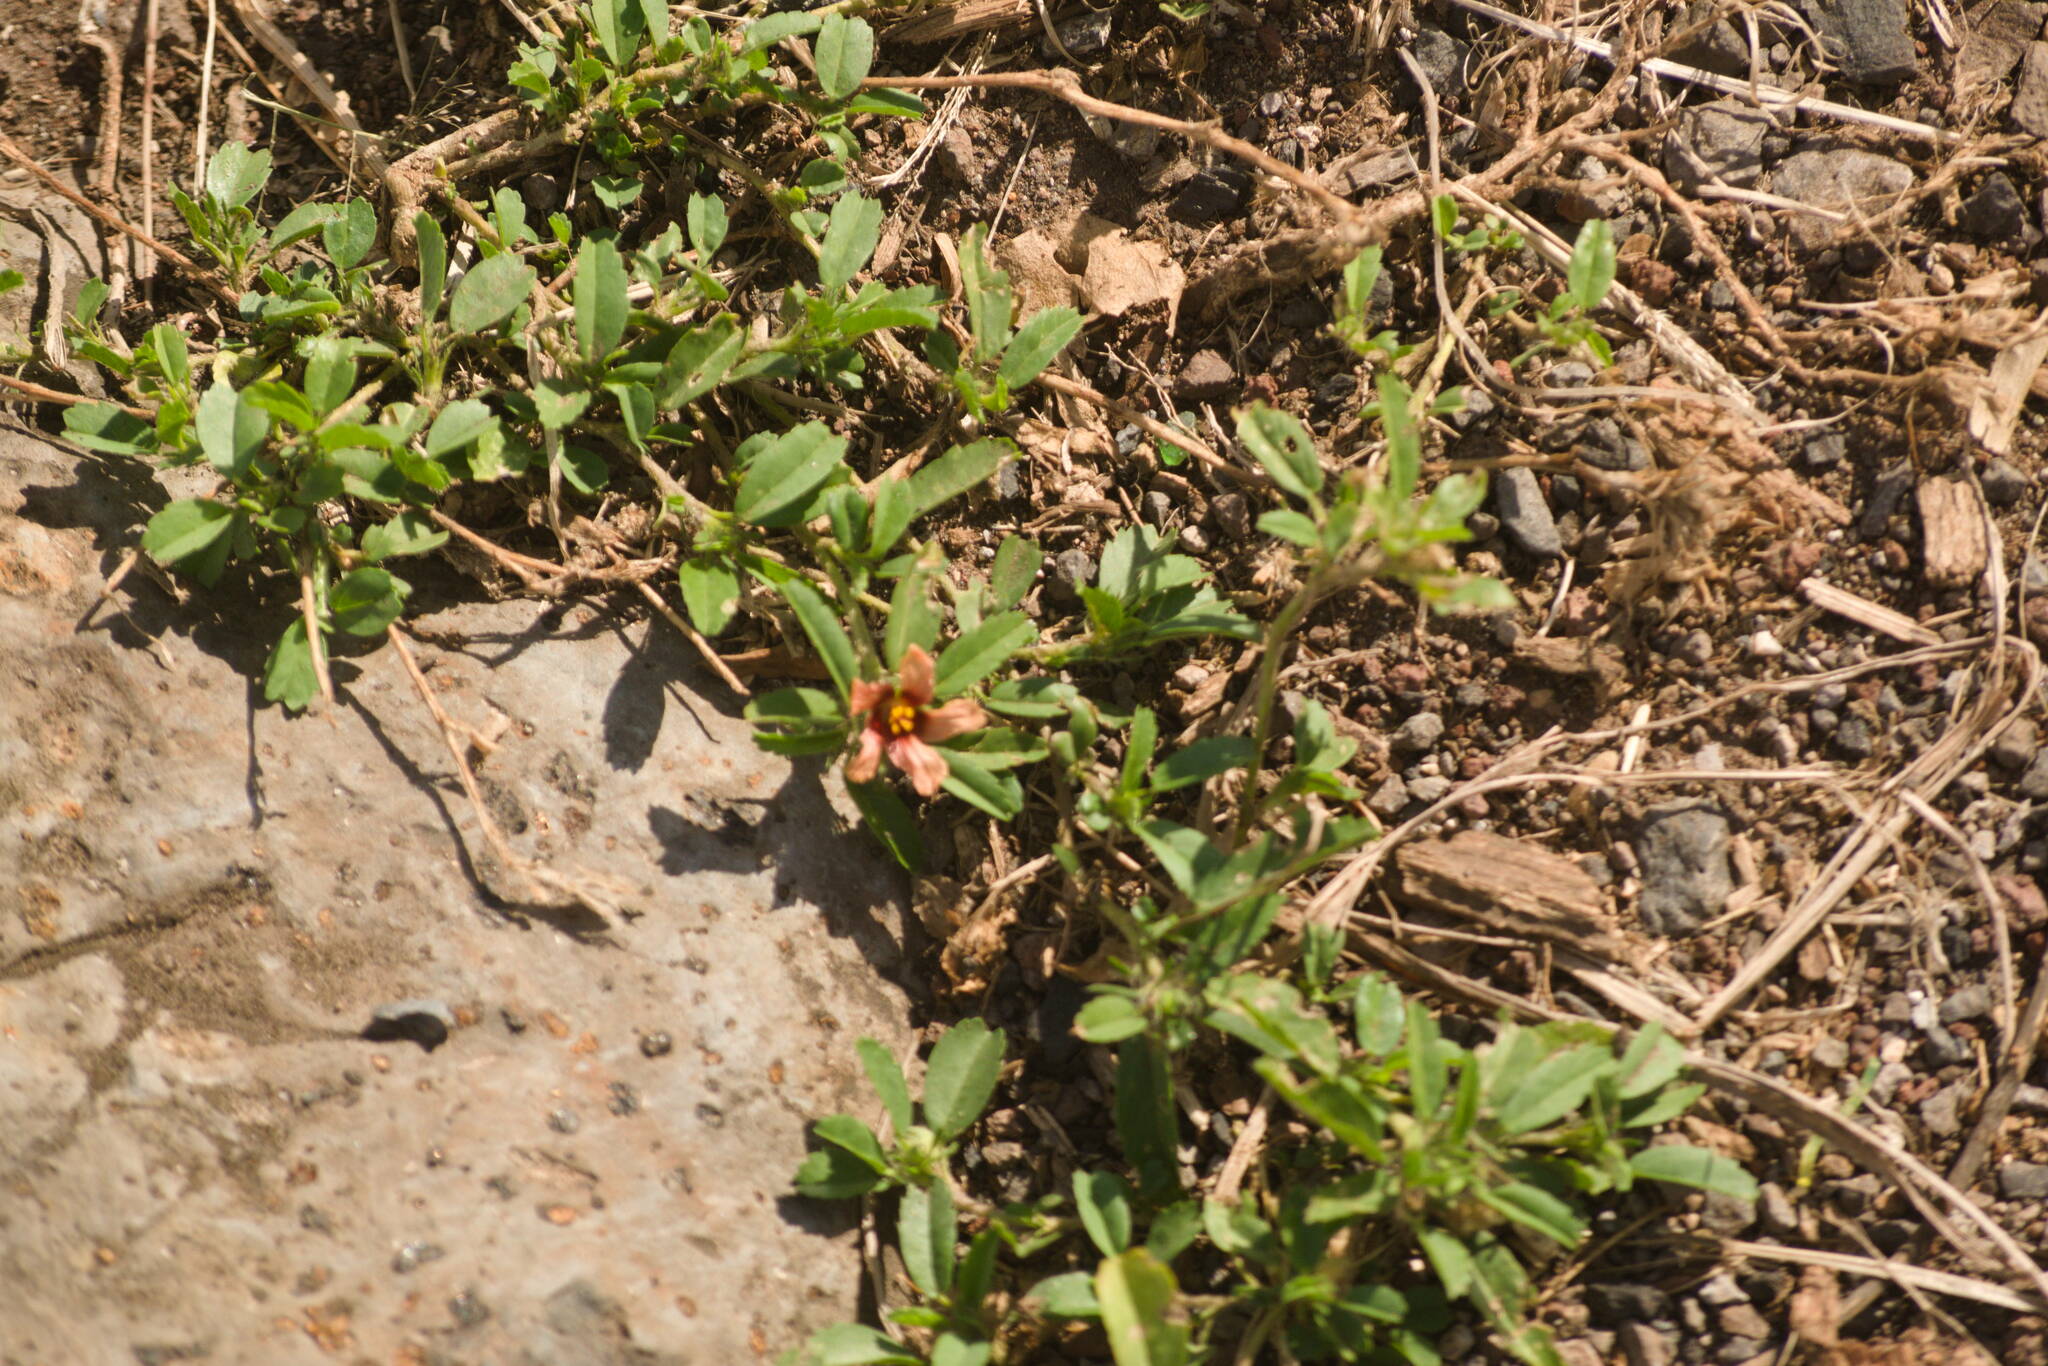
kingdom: Plantae
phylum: Tracheophyta
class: Magnoliopsida
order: Malvales
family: Malvaceae
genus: Sida
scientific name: Sida ciliaris
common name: Bracted fanpetals
